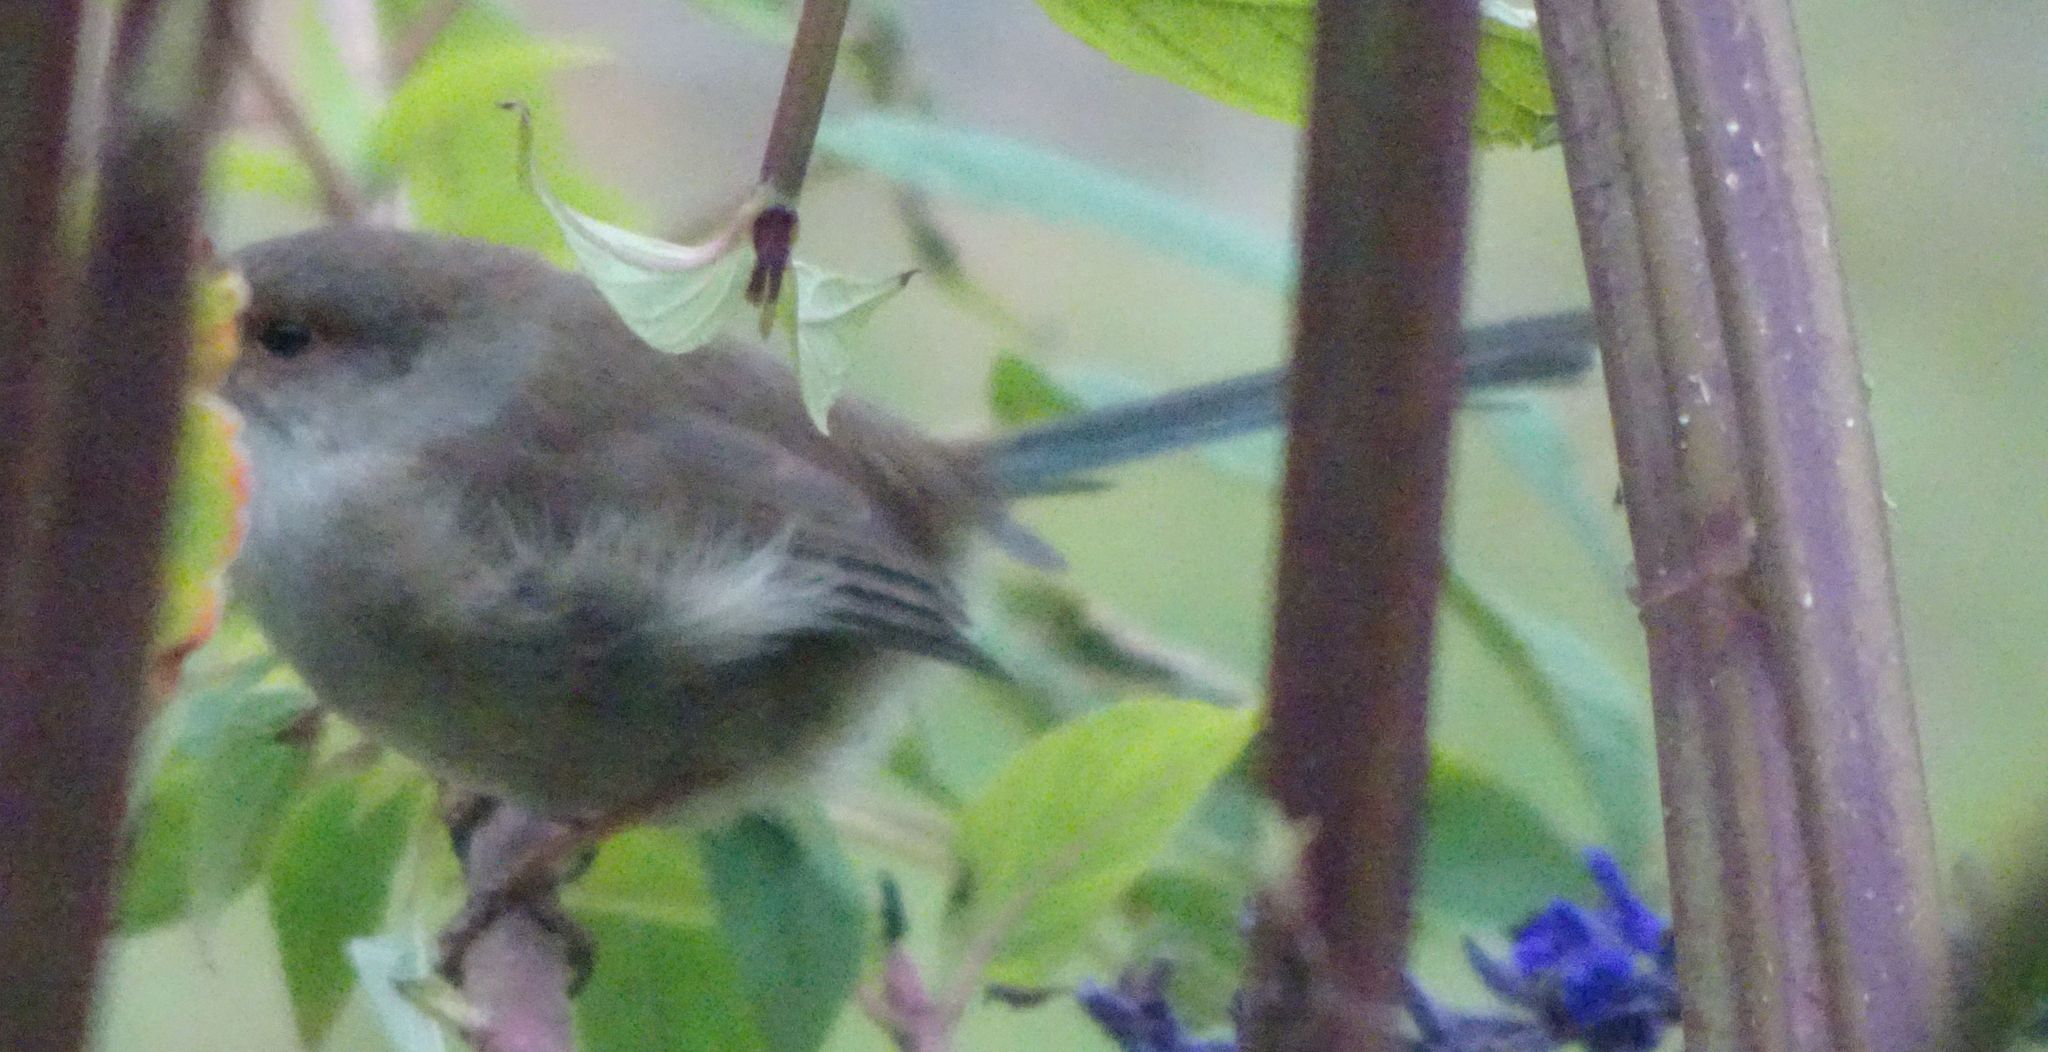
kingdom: Animalia
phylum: Chordata
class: Aves
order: Passeriformes
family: Maluridae
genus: Malurus
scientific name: Malurus cyaneus
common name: Superb fairywren
